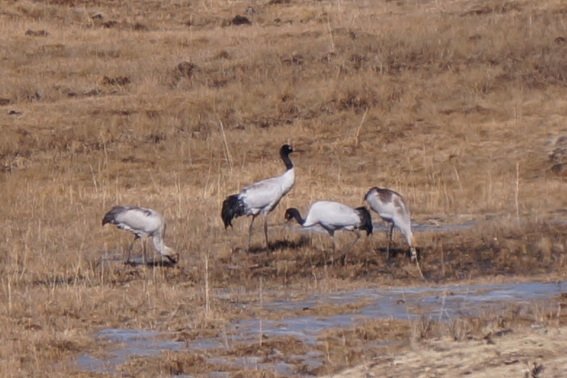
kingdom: Animalia
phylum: Chordata
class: Aves
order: Gruiformes
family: Gruidae
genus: Grus
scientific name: Grus nigricollis
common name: Black-necked crane
